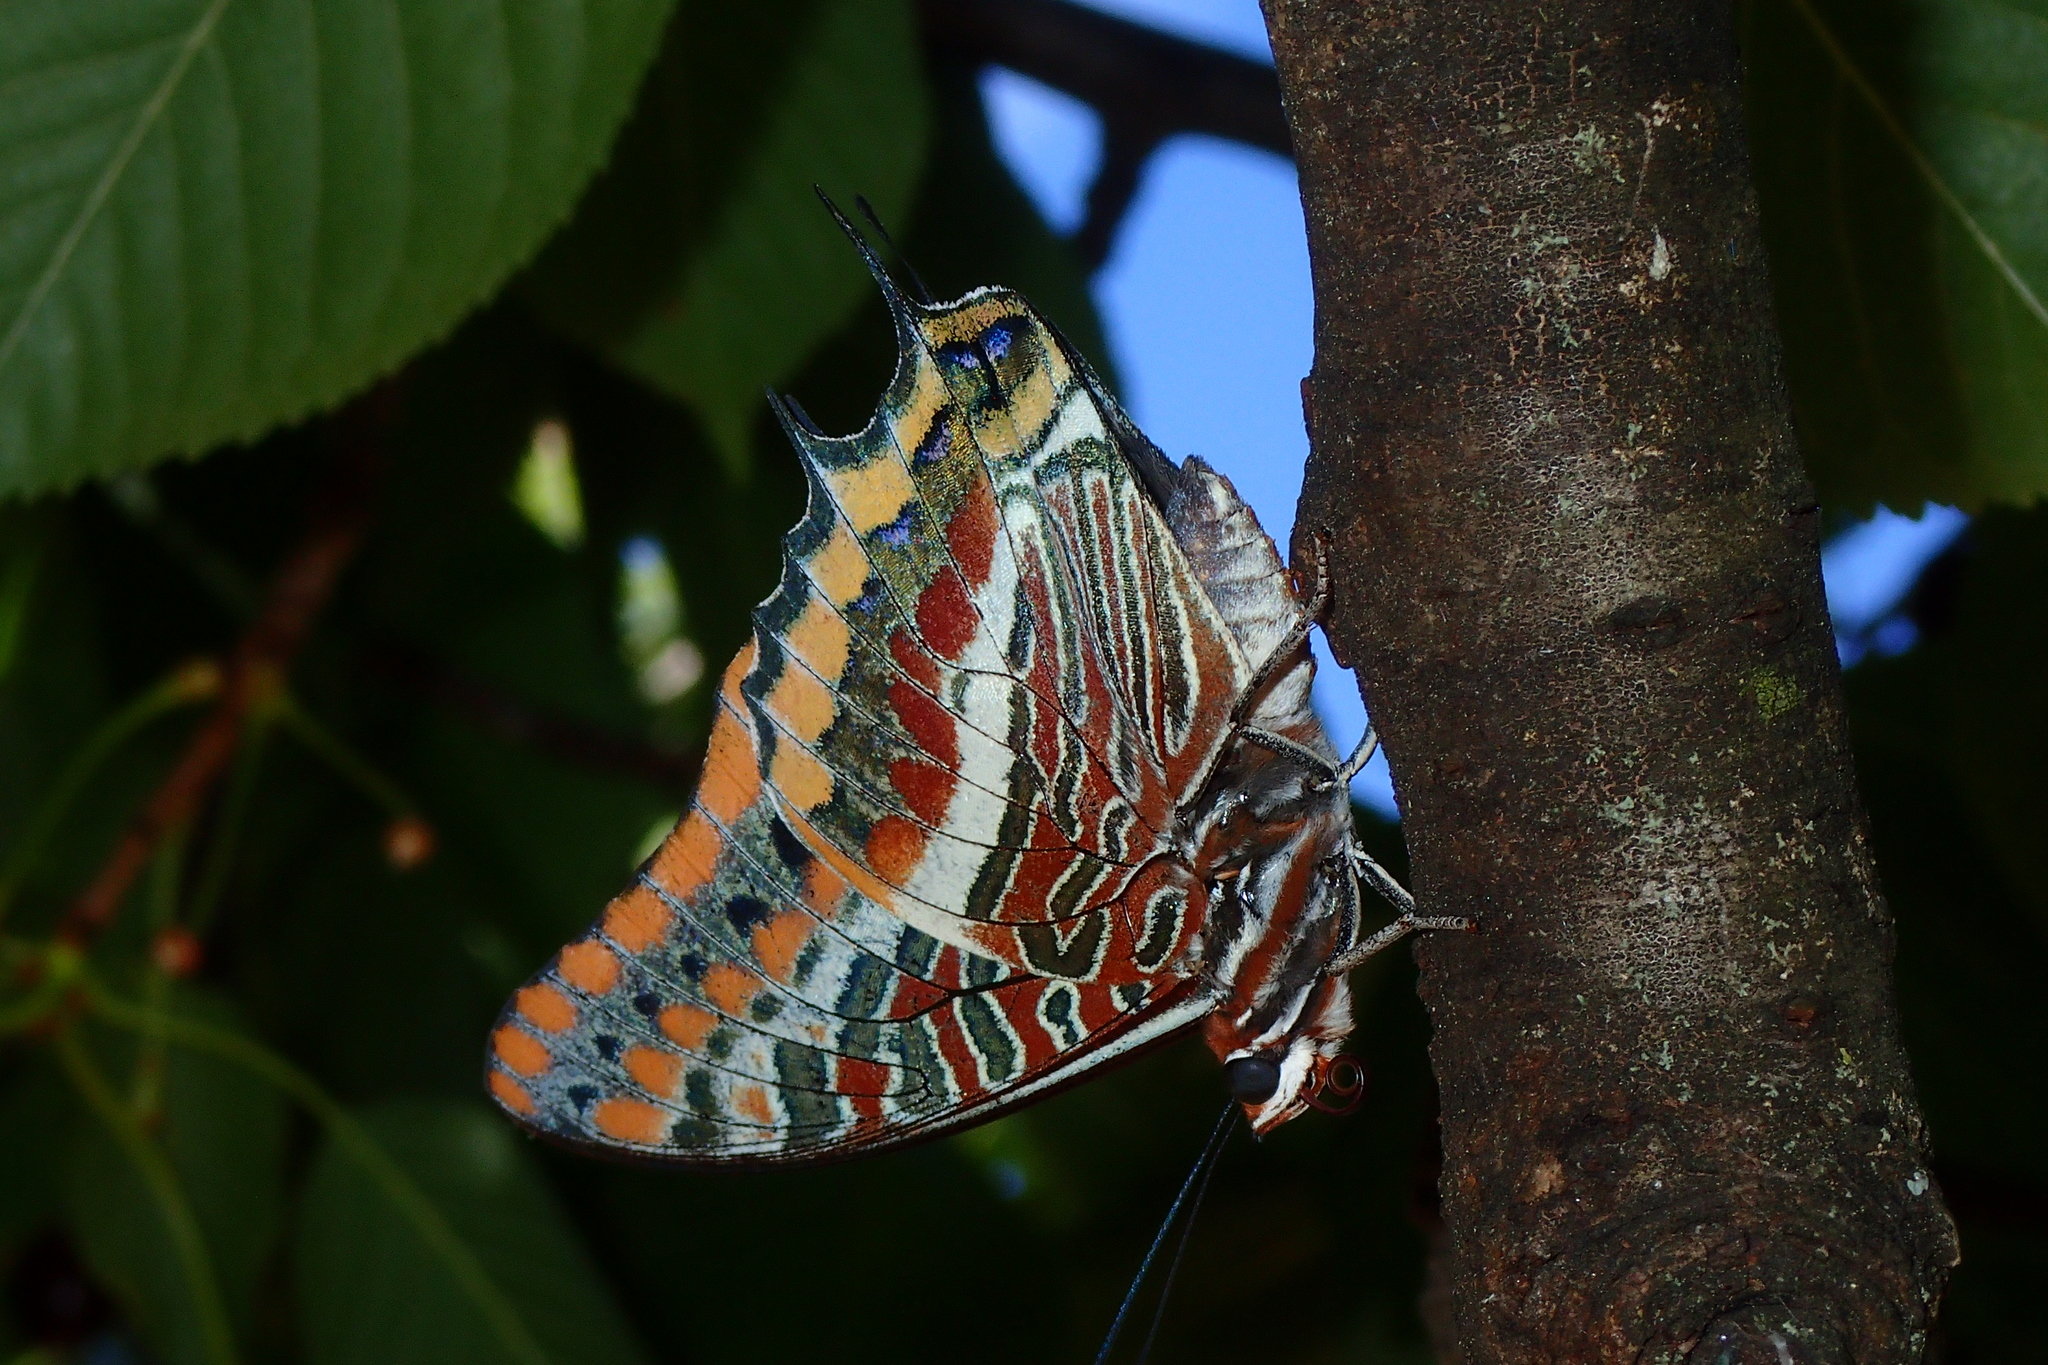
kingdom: Animalia
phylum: Arthropoda
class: Insecta
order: Lepidoptera
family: Nymphalidae
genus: Charaxes
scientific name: Charaxes jasius
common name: Two tailed pasha
